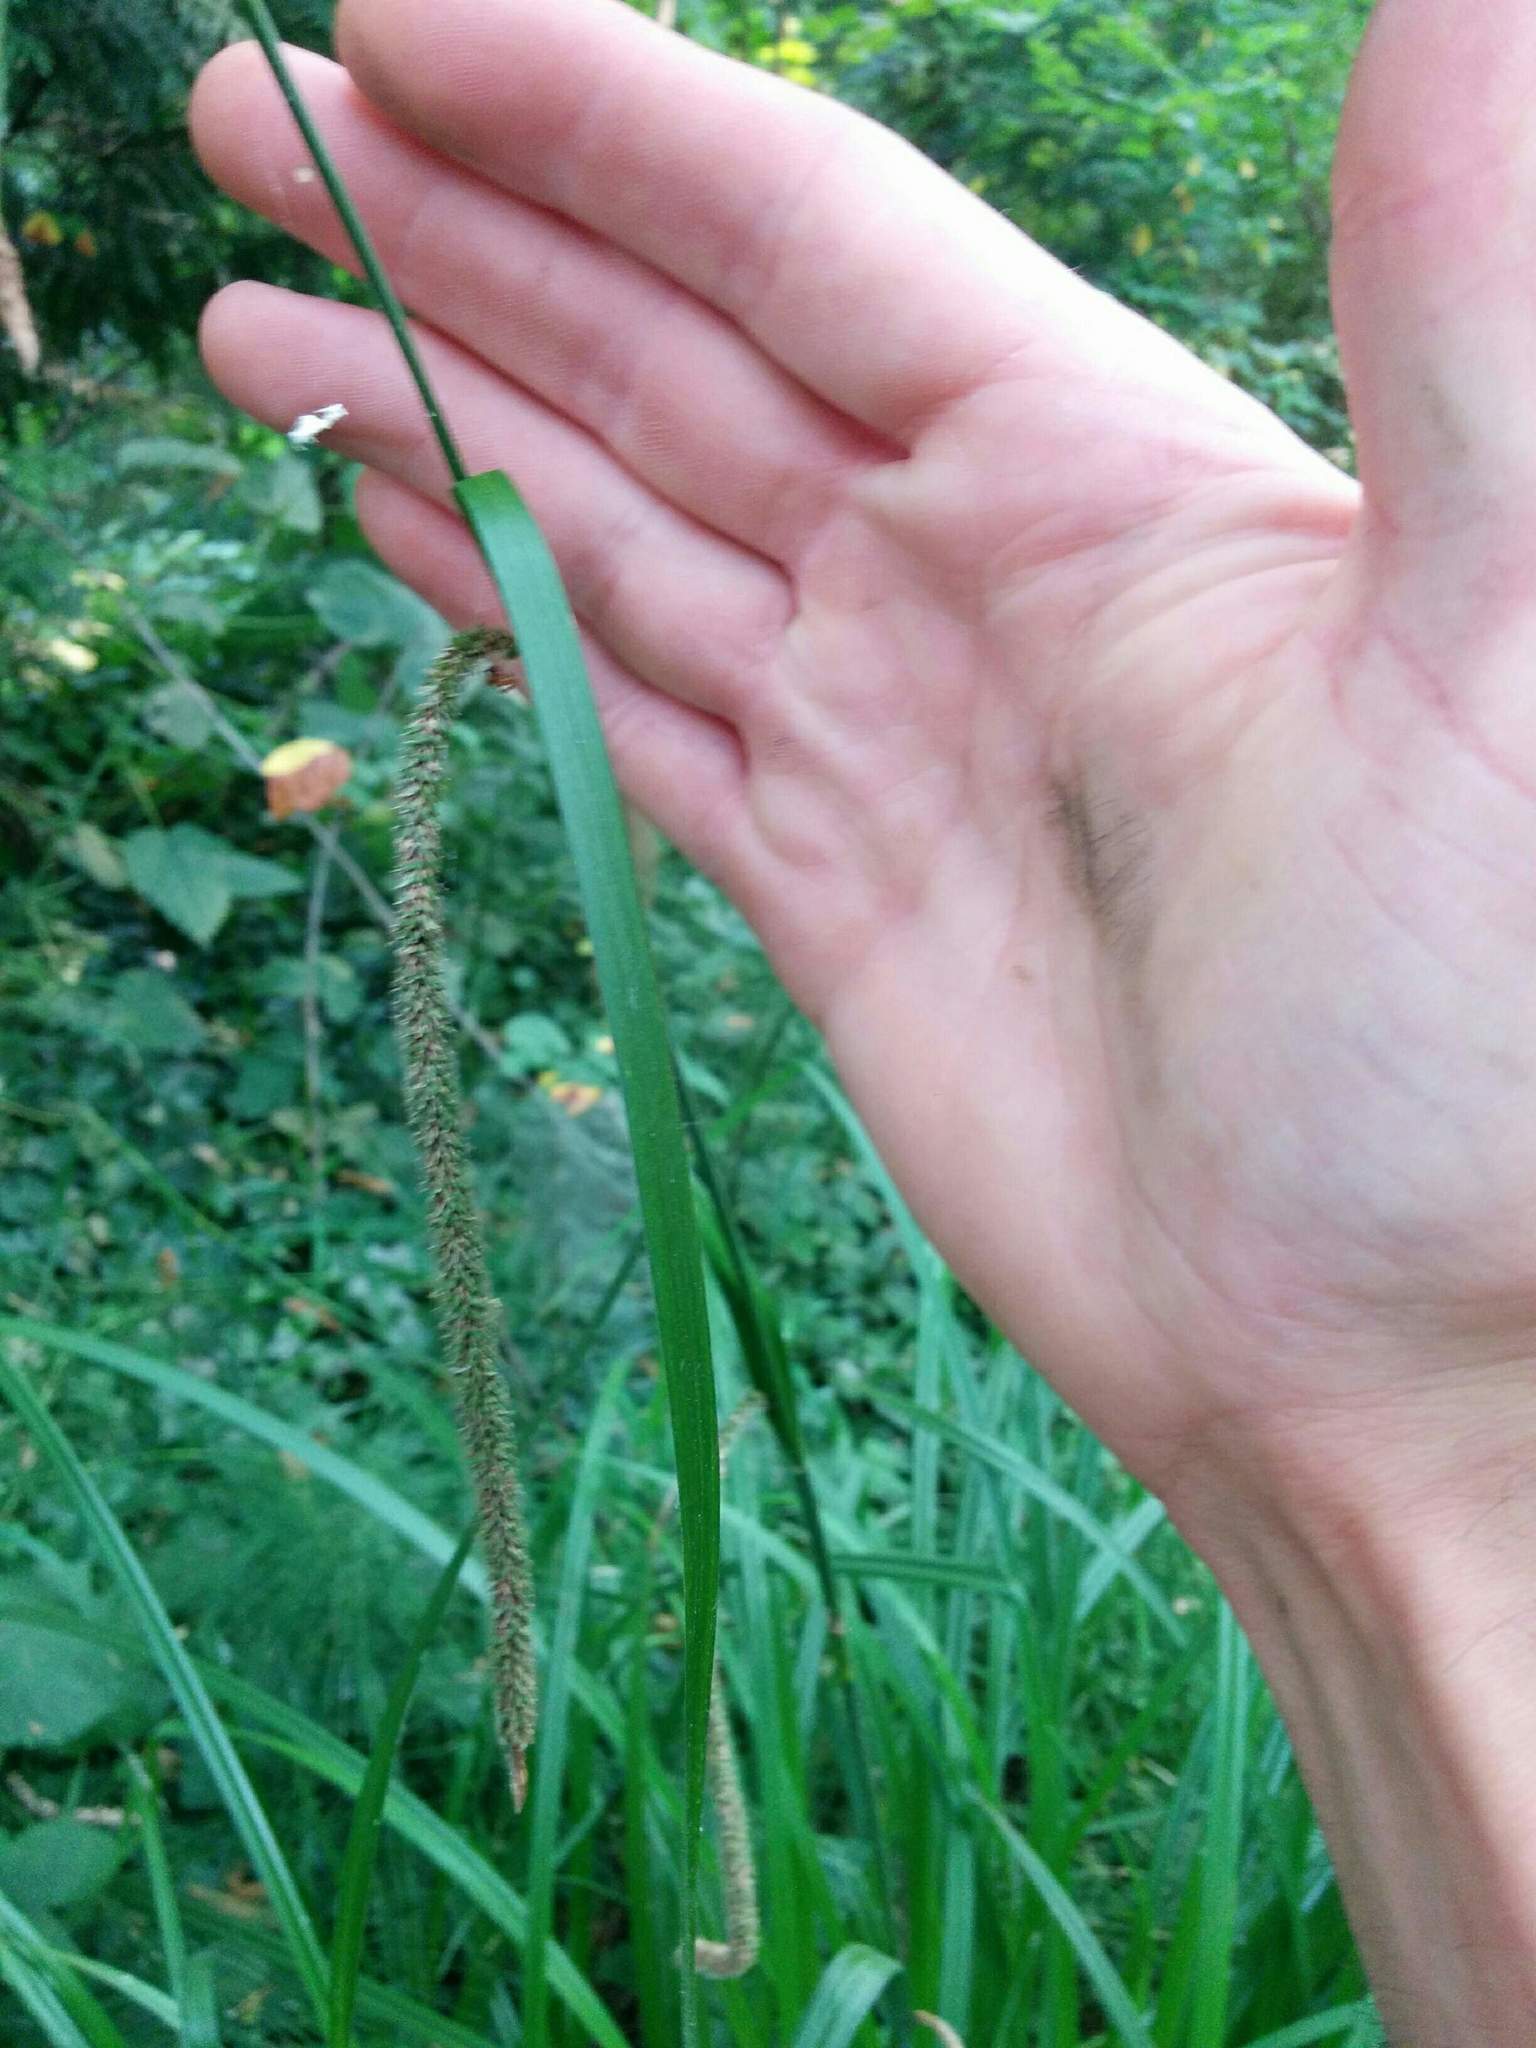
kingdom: Plantae
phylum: Tracheophyta
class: Liliopsida
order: Poales
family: Cyperaceae
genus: Carex
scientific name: Carex pendula
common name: Pendulous sedge
